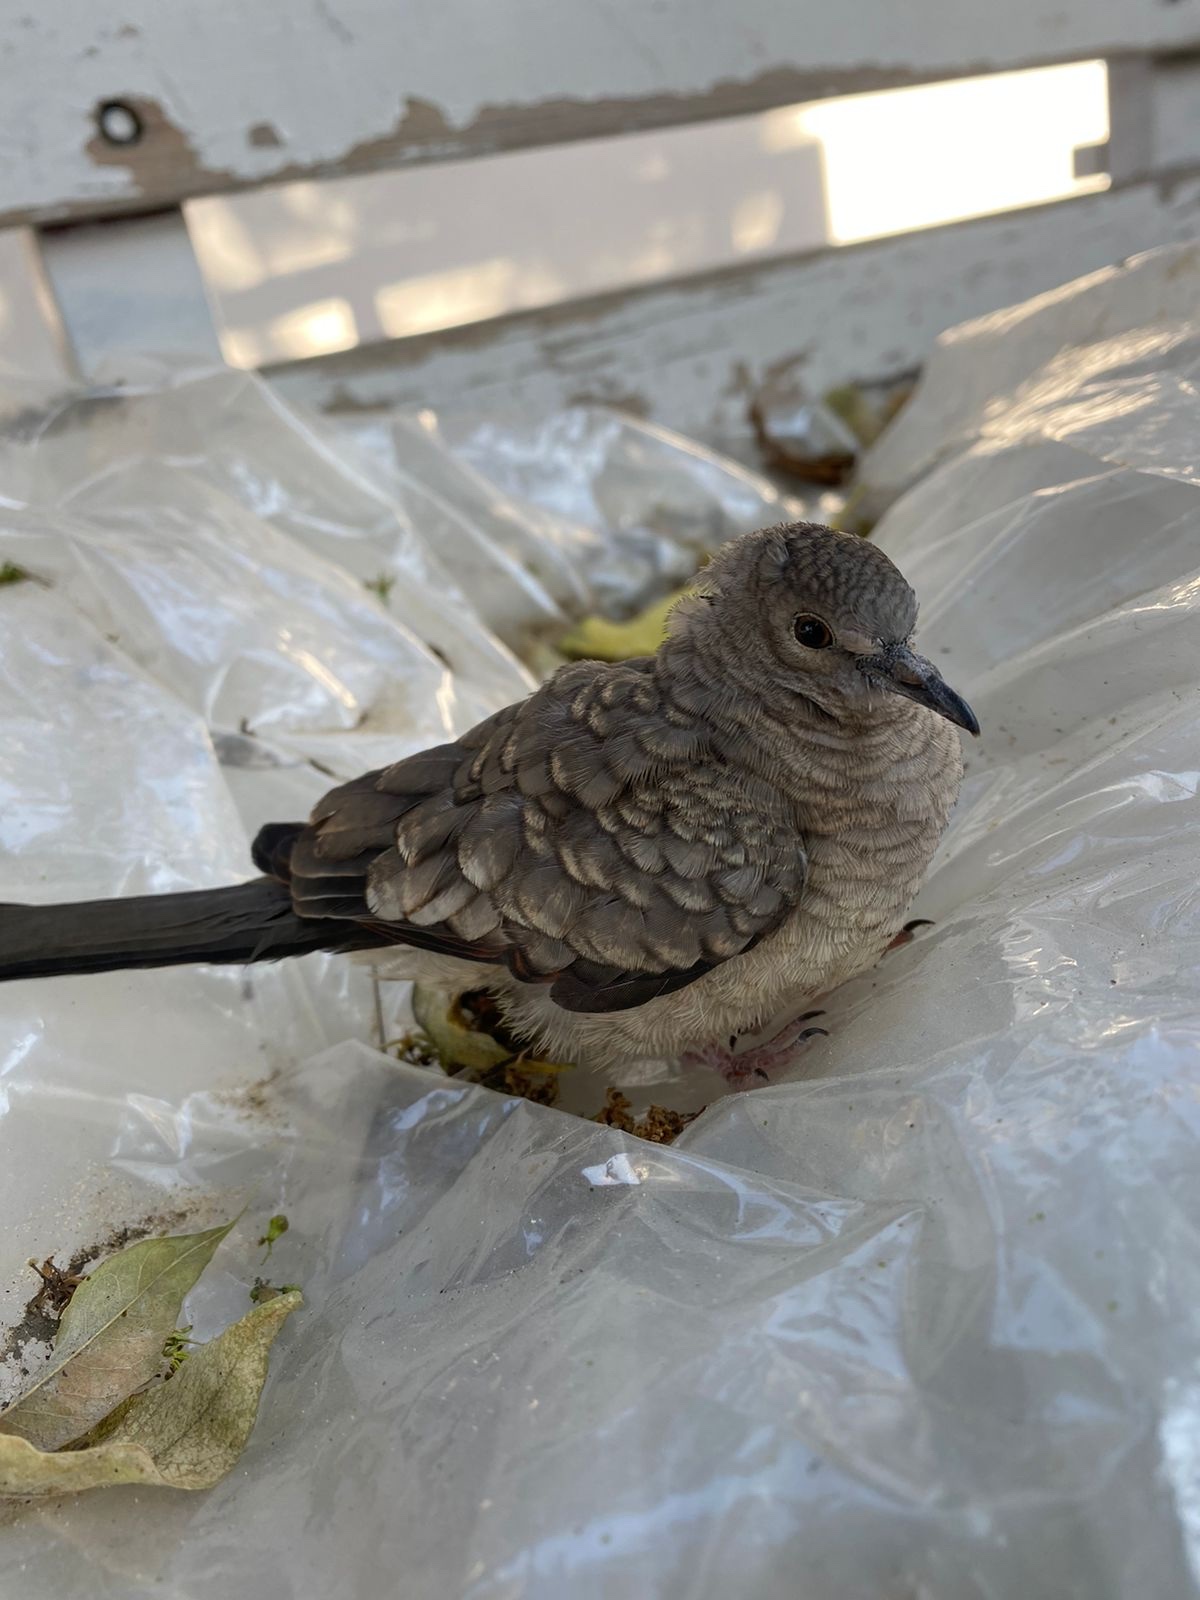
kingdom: Animalia
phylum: Chordata
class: Aves
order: Columbiformes
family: Columbidae
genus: Columbina
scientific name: Columbina inca
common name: Inca dove
